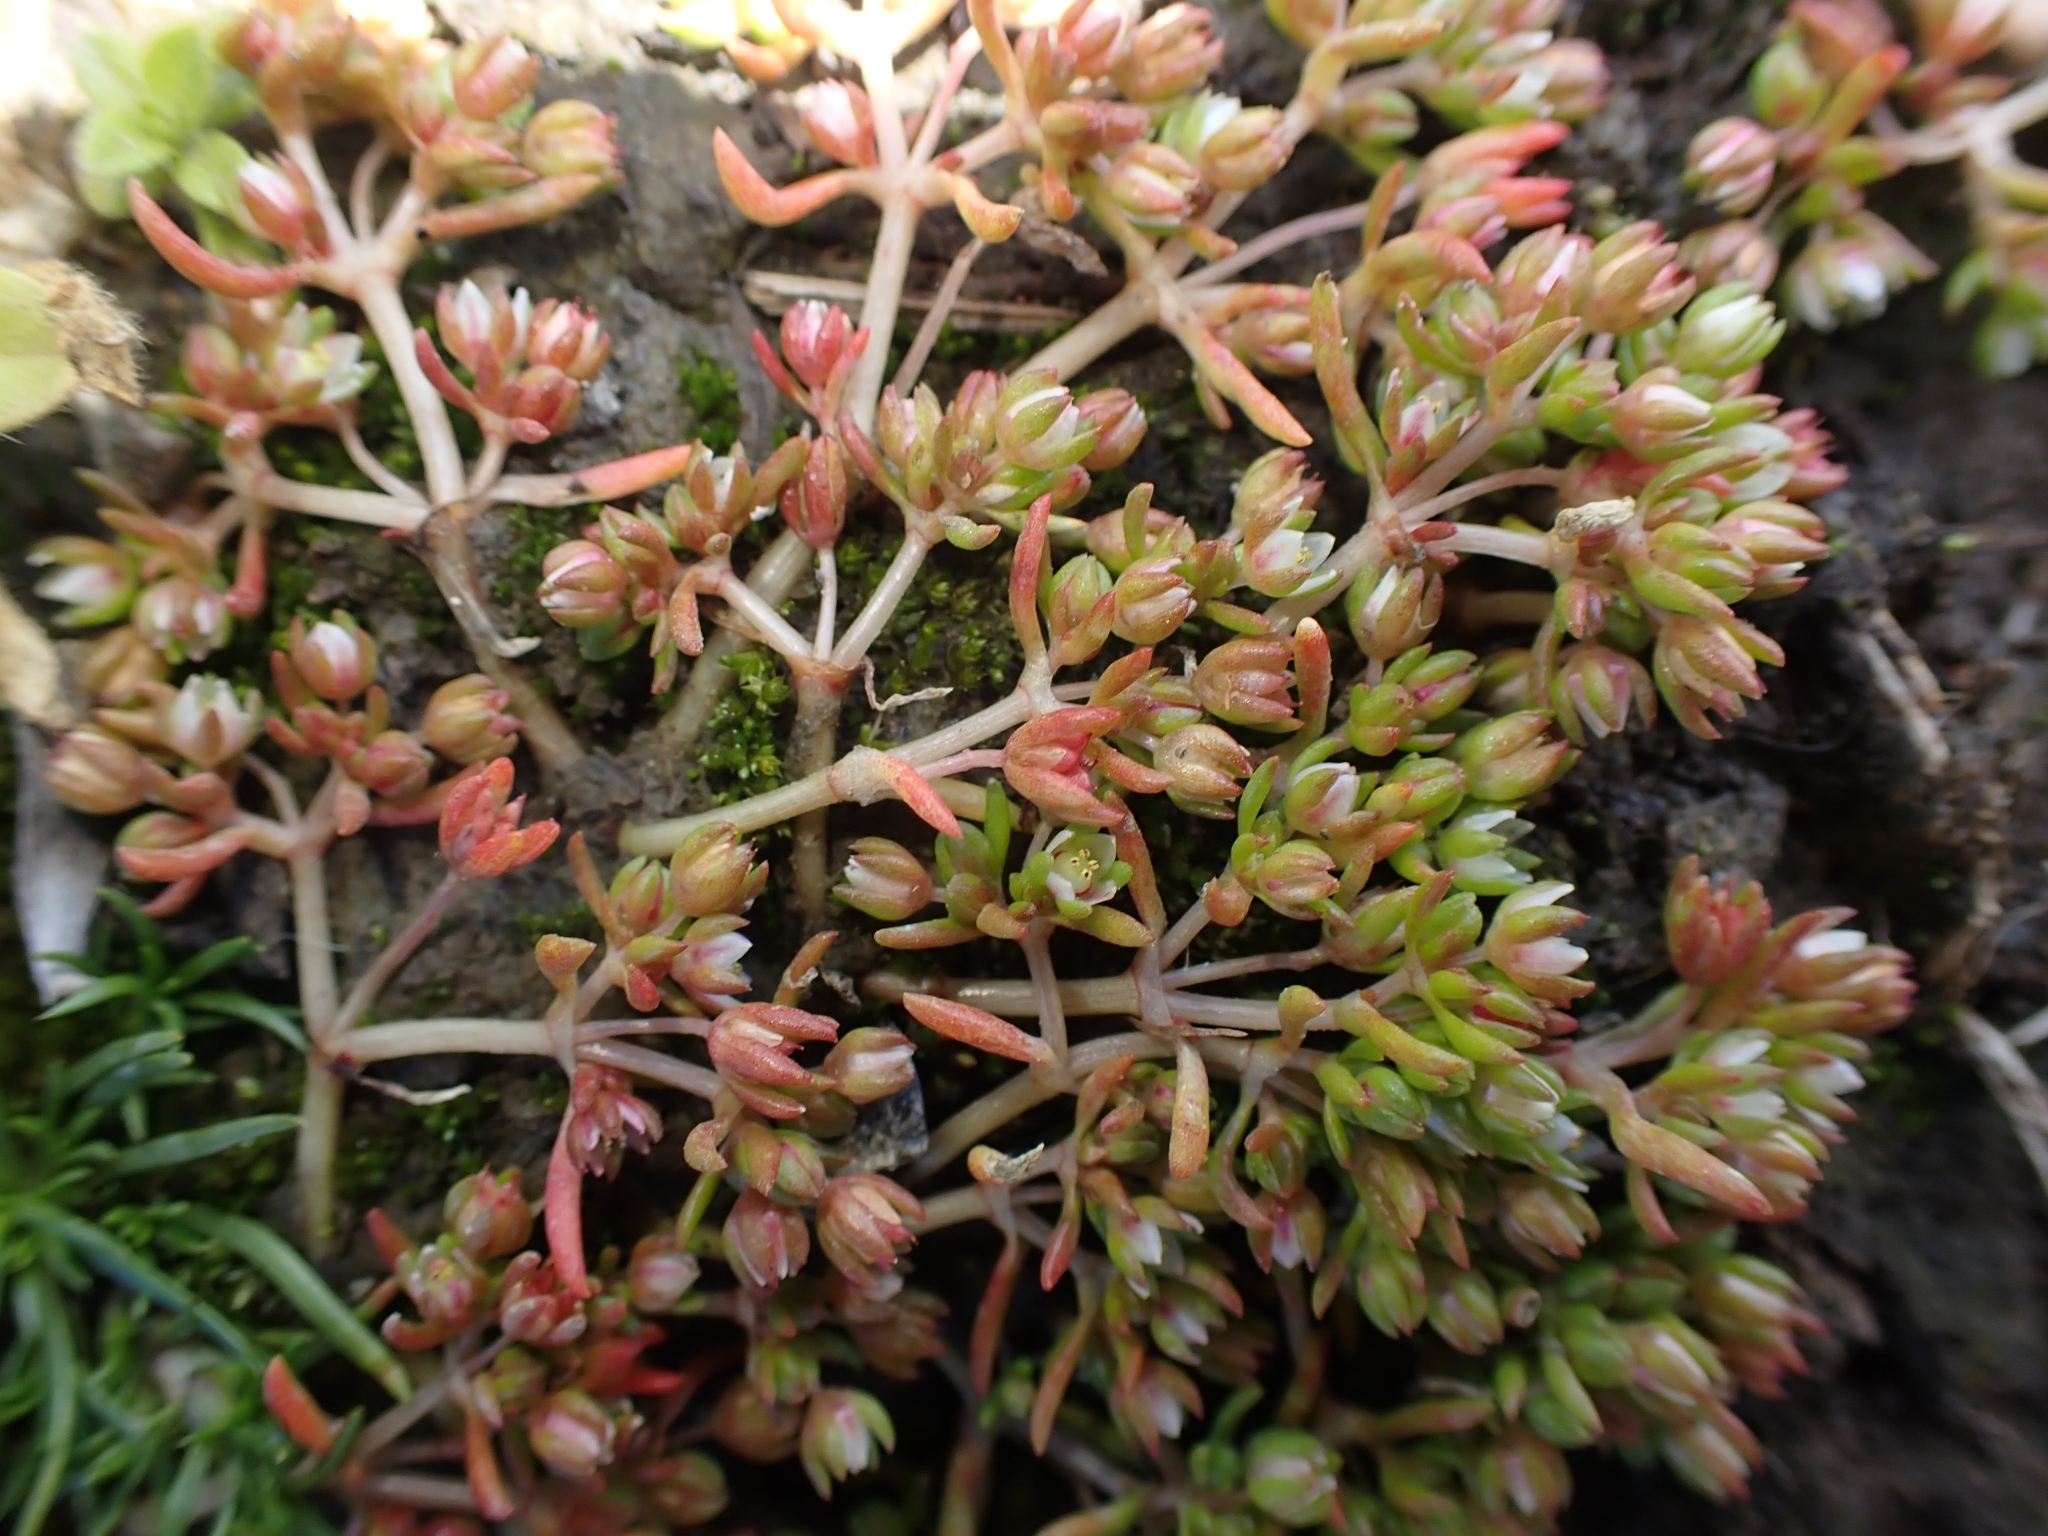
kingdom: Plantae
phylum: Tracheophyta
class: Magnoliopsida
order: Caryophyllales
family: Caryophyllaceae
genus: Polycarpon
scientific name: Polycarpon tetraphyllum
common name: Four-leaved all-seed
